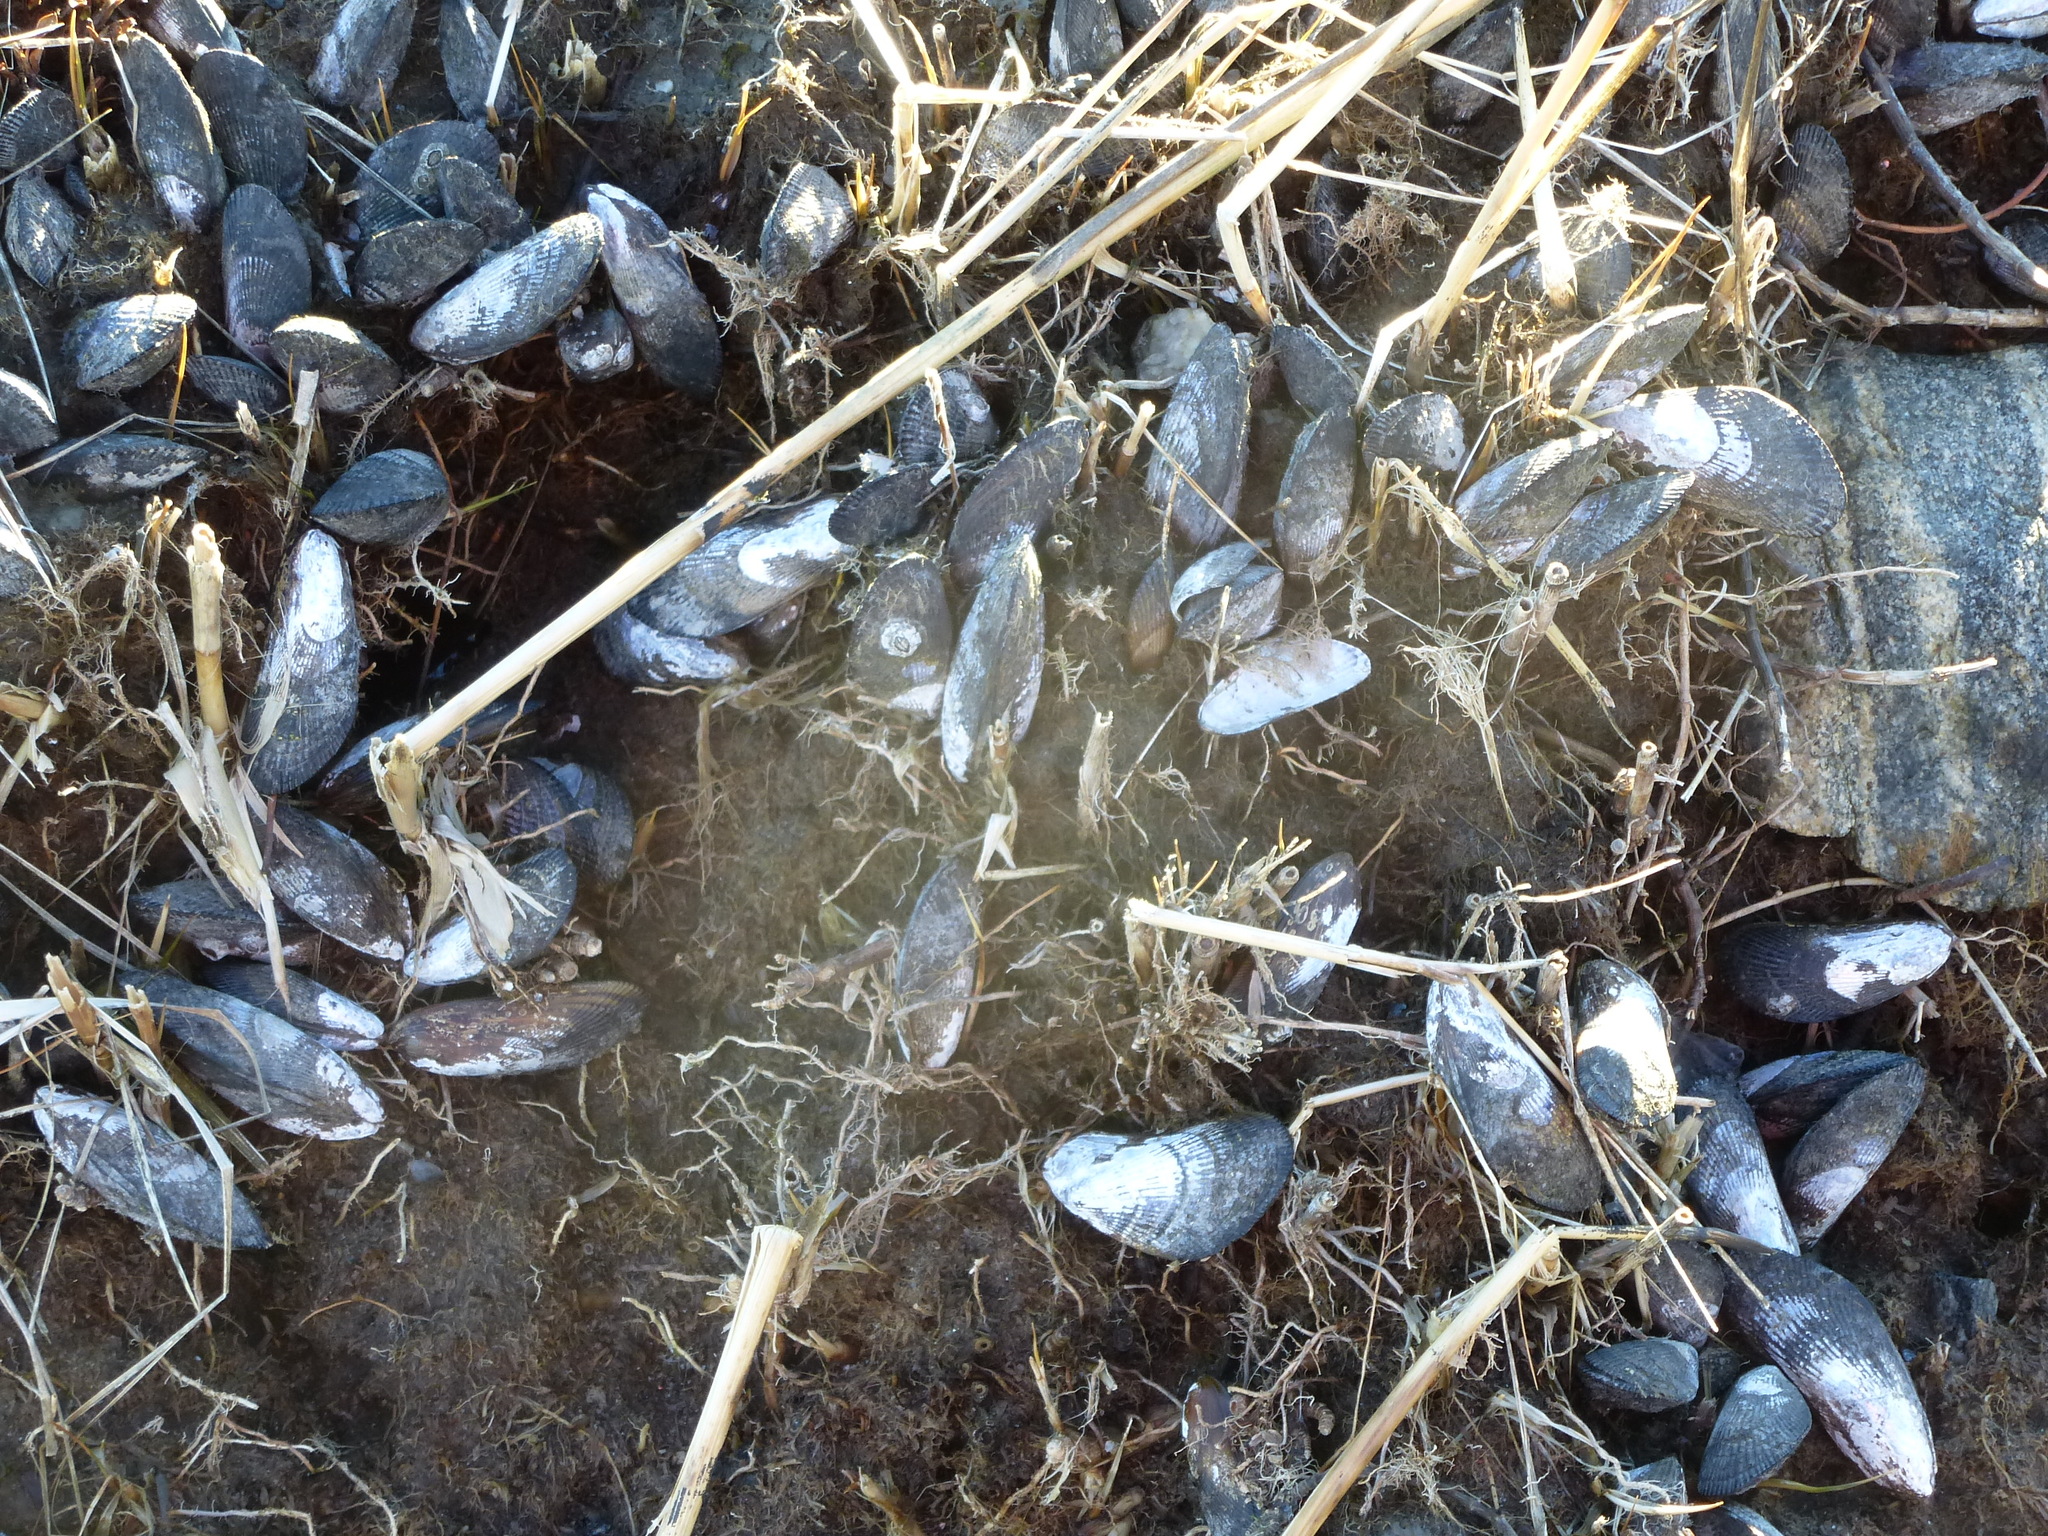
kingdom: Animalia
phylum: Mollusca
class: Bivalvia
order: Mytilida
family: Mytilidae
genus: Geukensia
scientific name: Geukensia demissa
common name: Ribbed mussel
